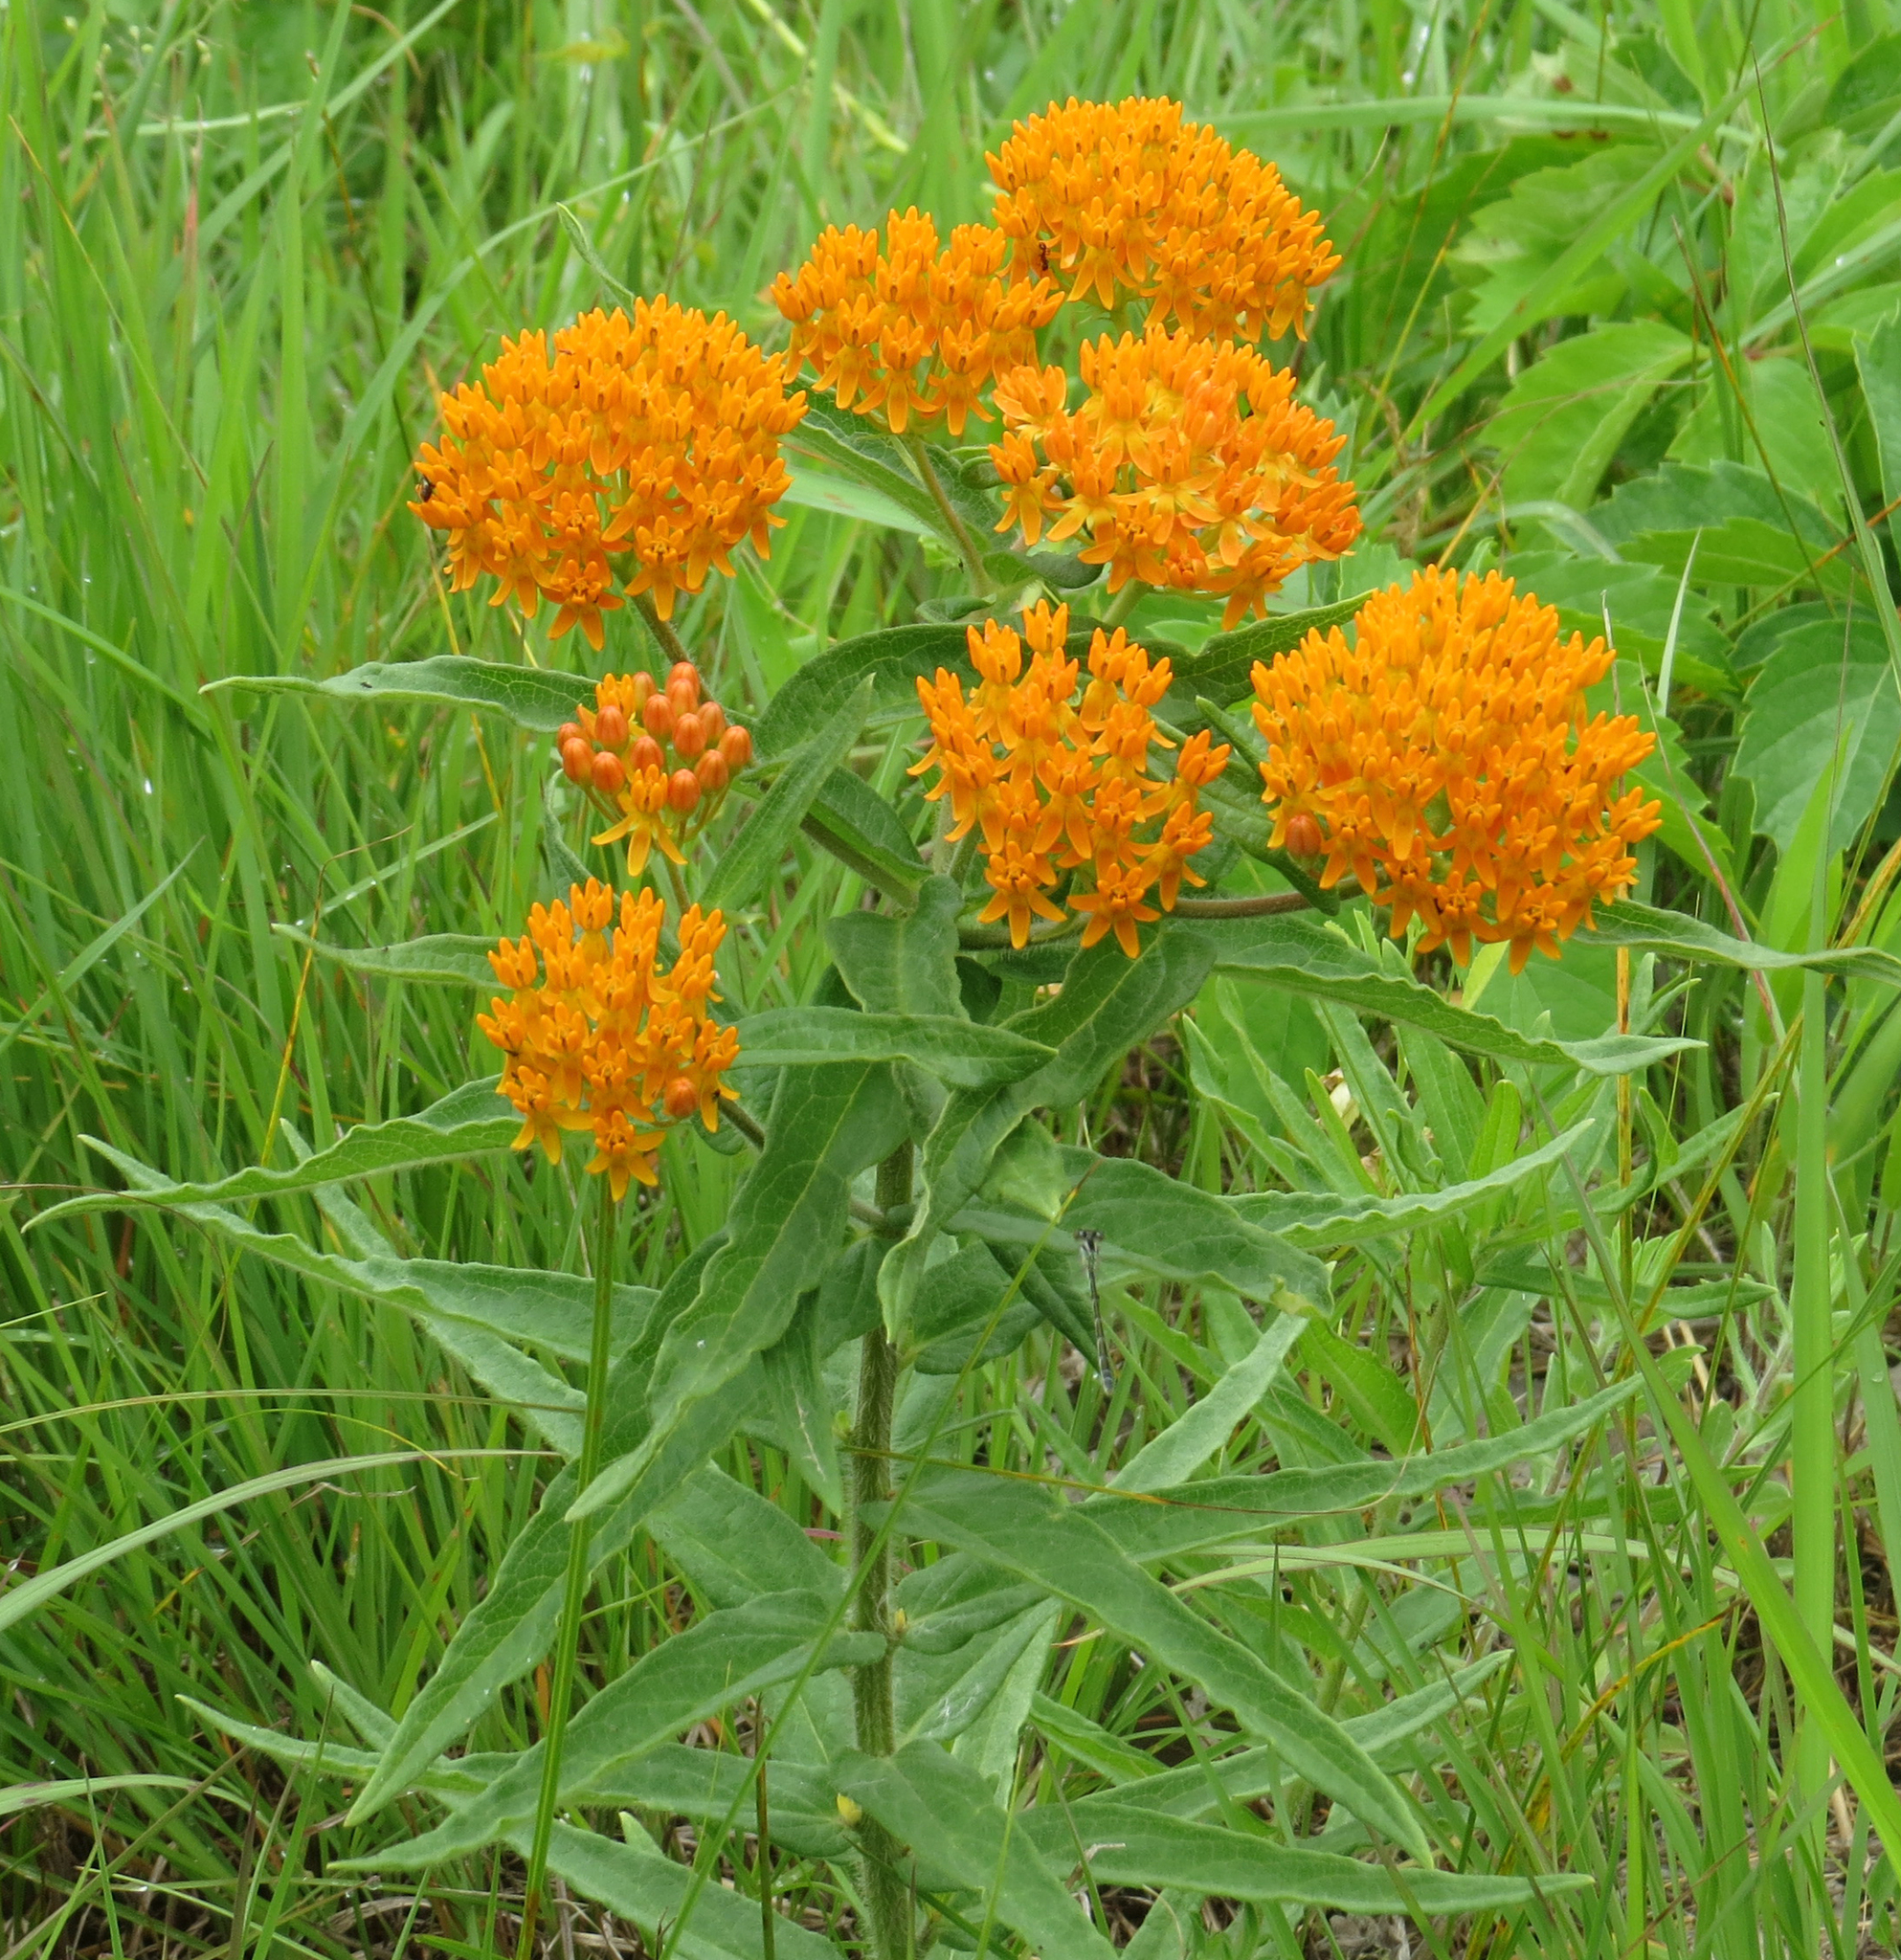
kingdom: Plantae
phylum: Tracheophyta
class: Magnoliopsida
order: Gentianales
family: Apocynaceae
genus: Asclepias
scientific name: Asclepias tuberosa
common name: Butterfly milkweed
